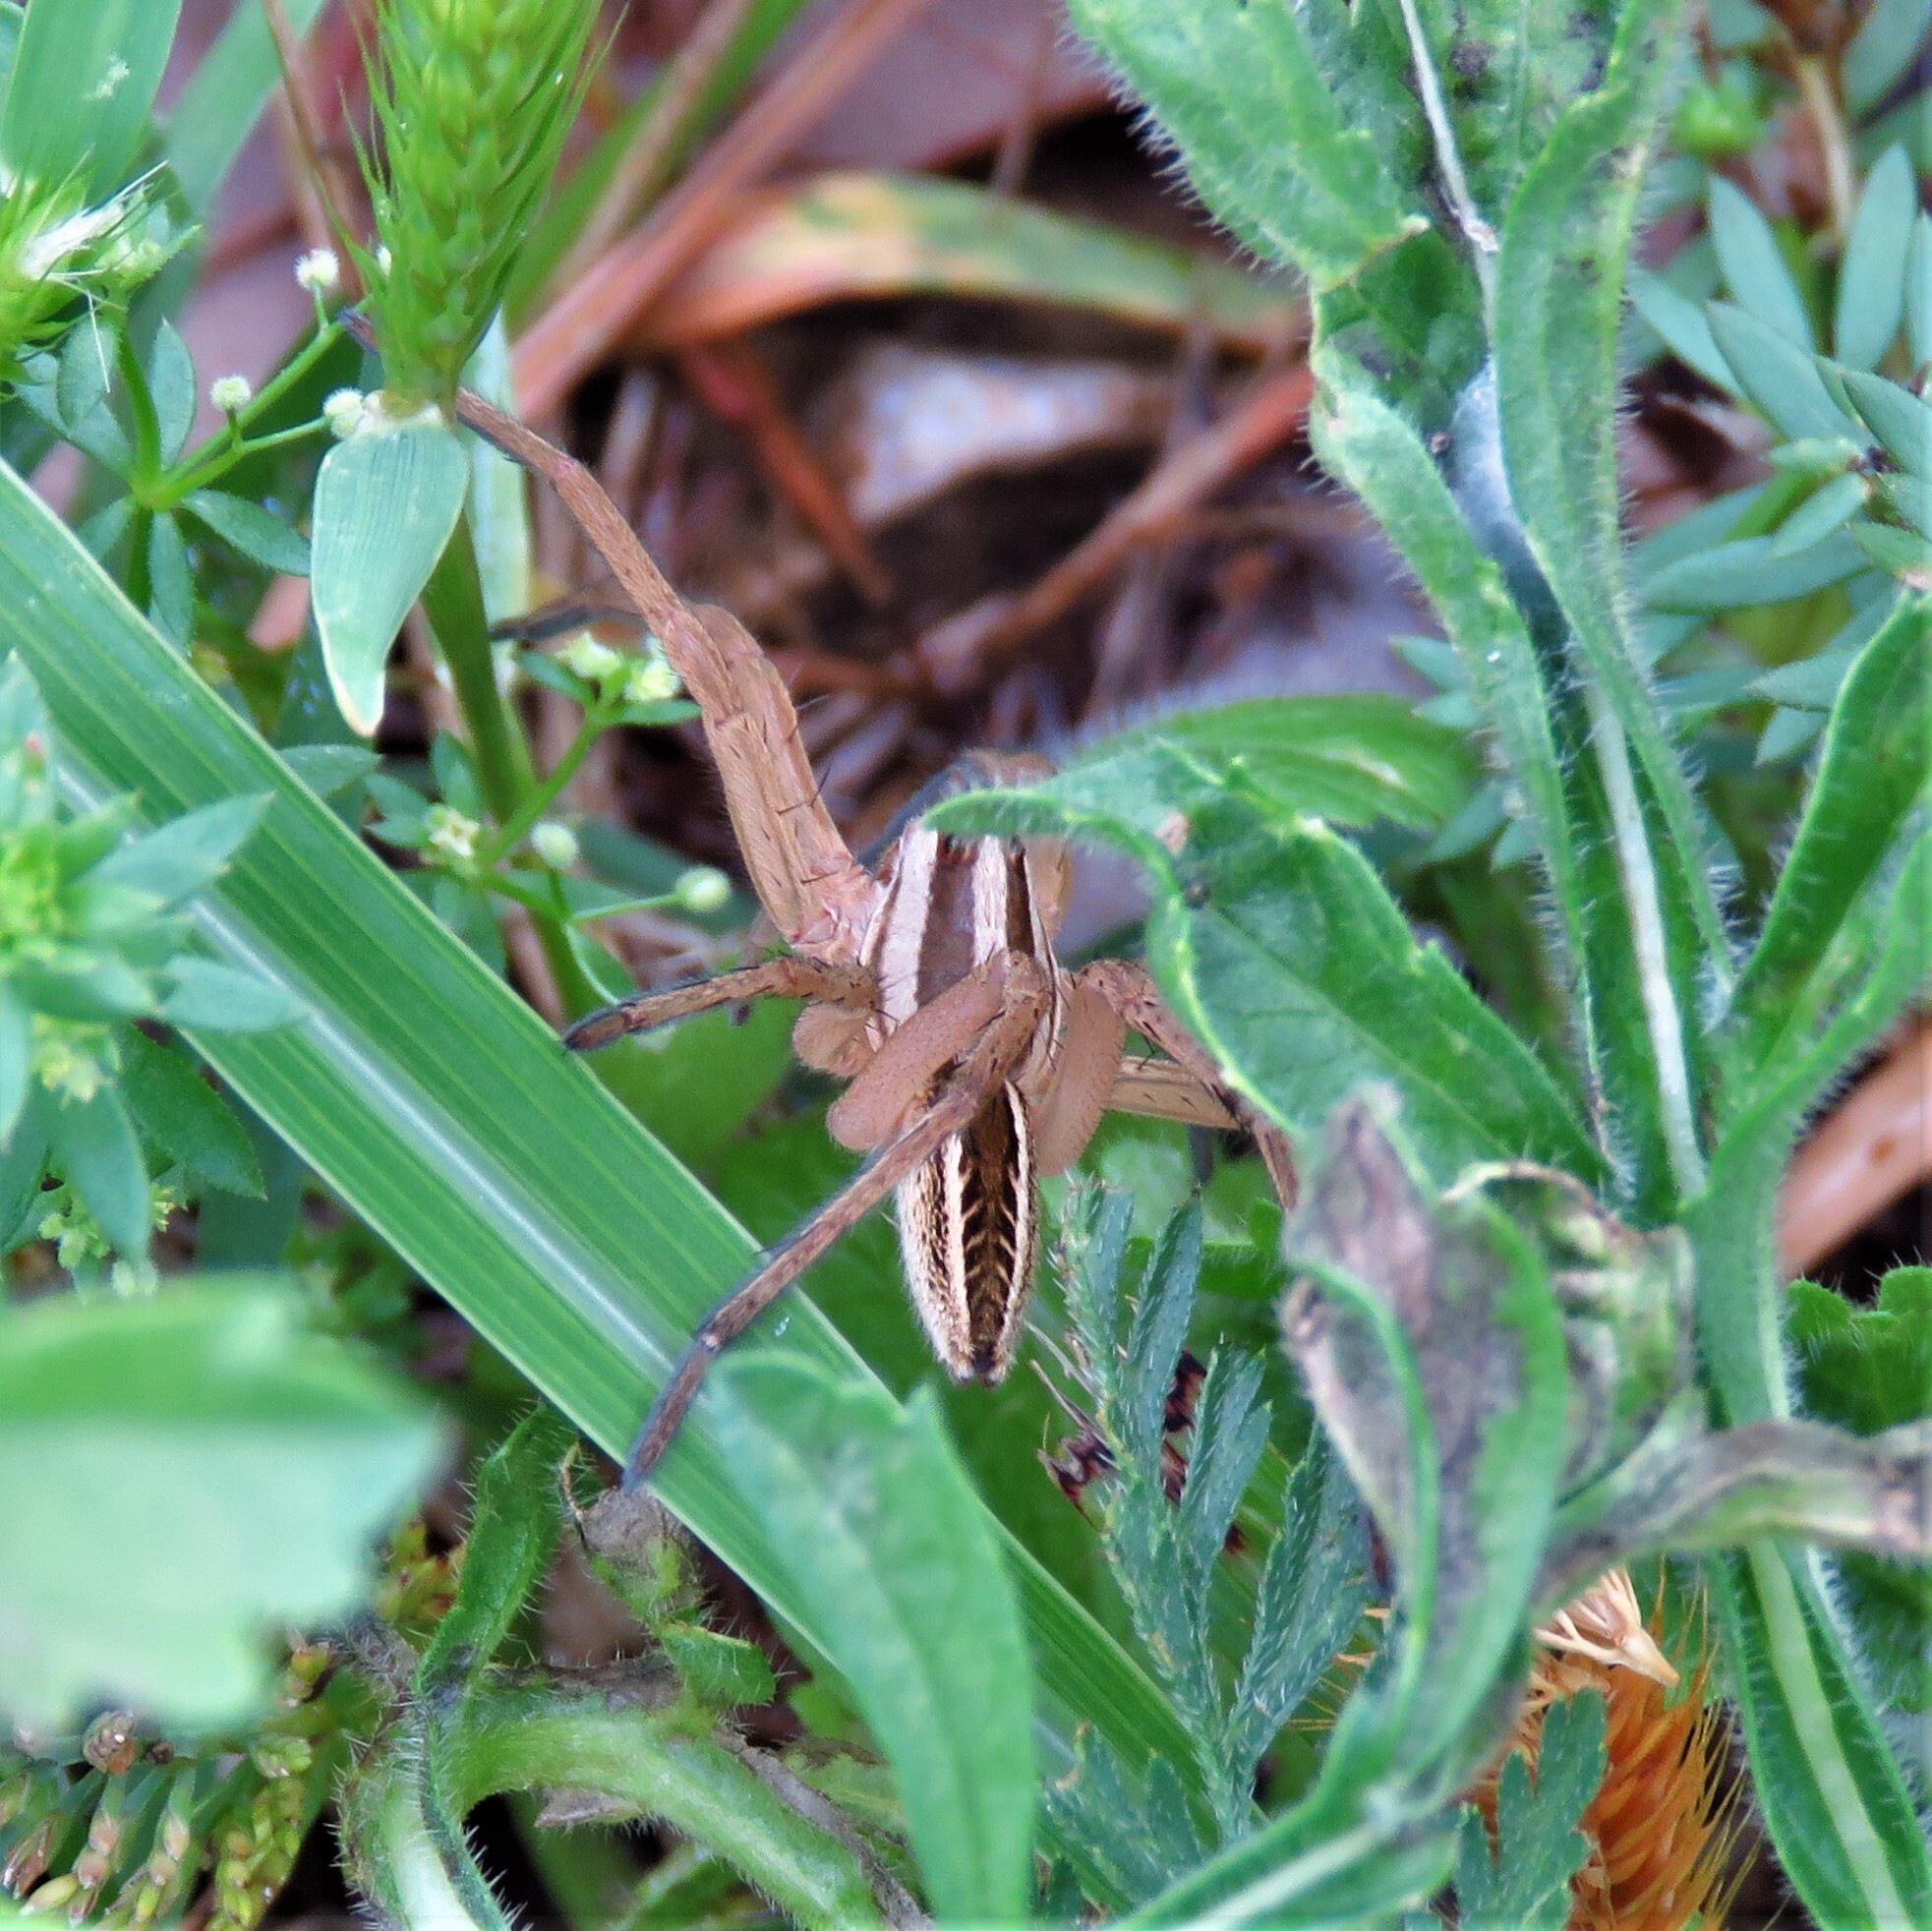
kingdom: Animalia
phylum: Arthropoda
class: Arachnida
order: Araneae
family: Lycosidae
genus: Rabidosa
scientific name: Rabidosa rabida
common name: Rabid wolf spider
